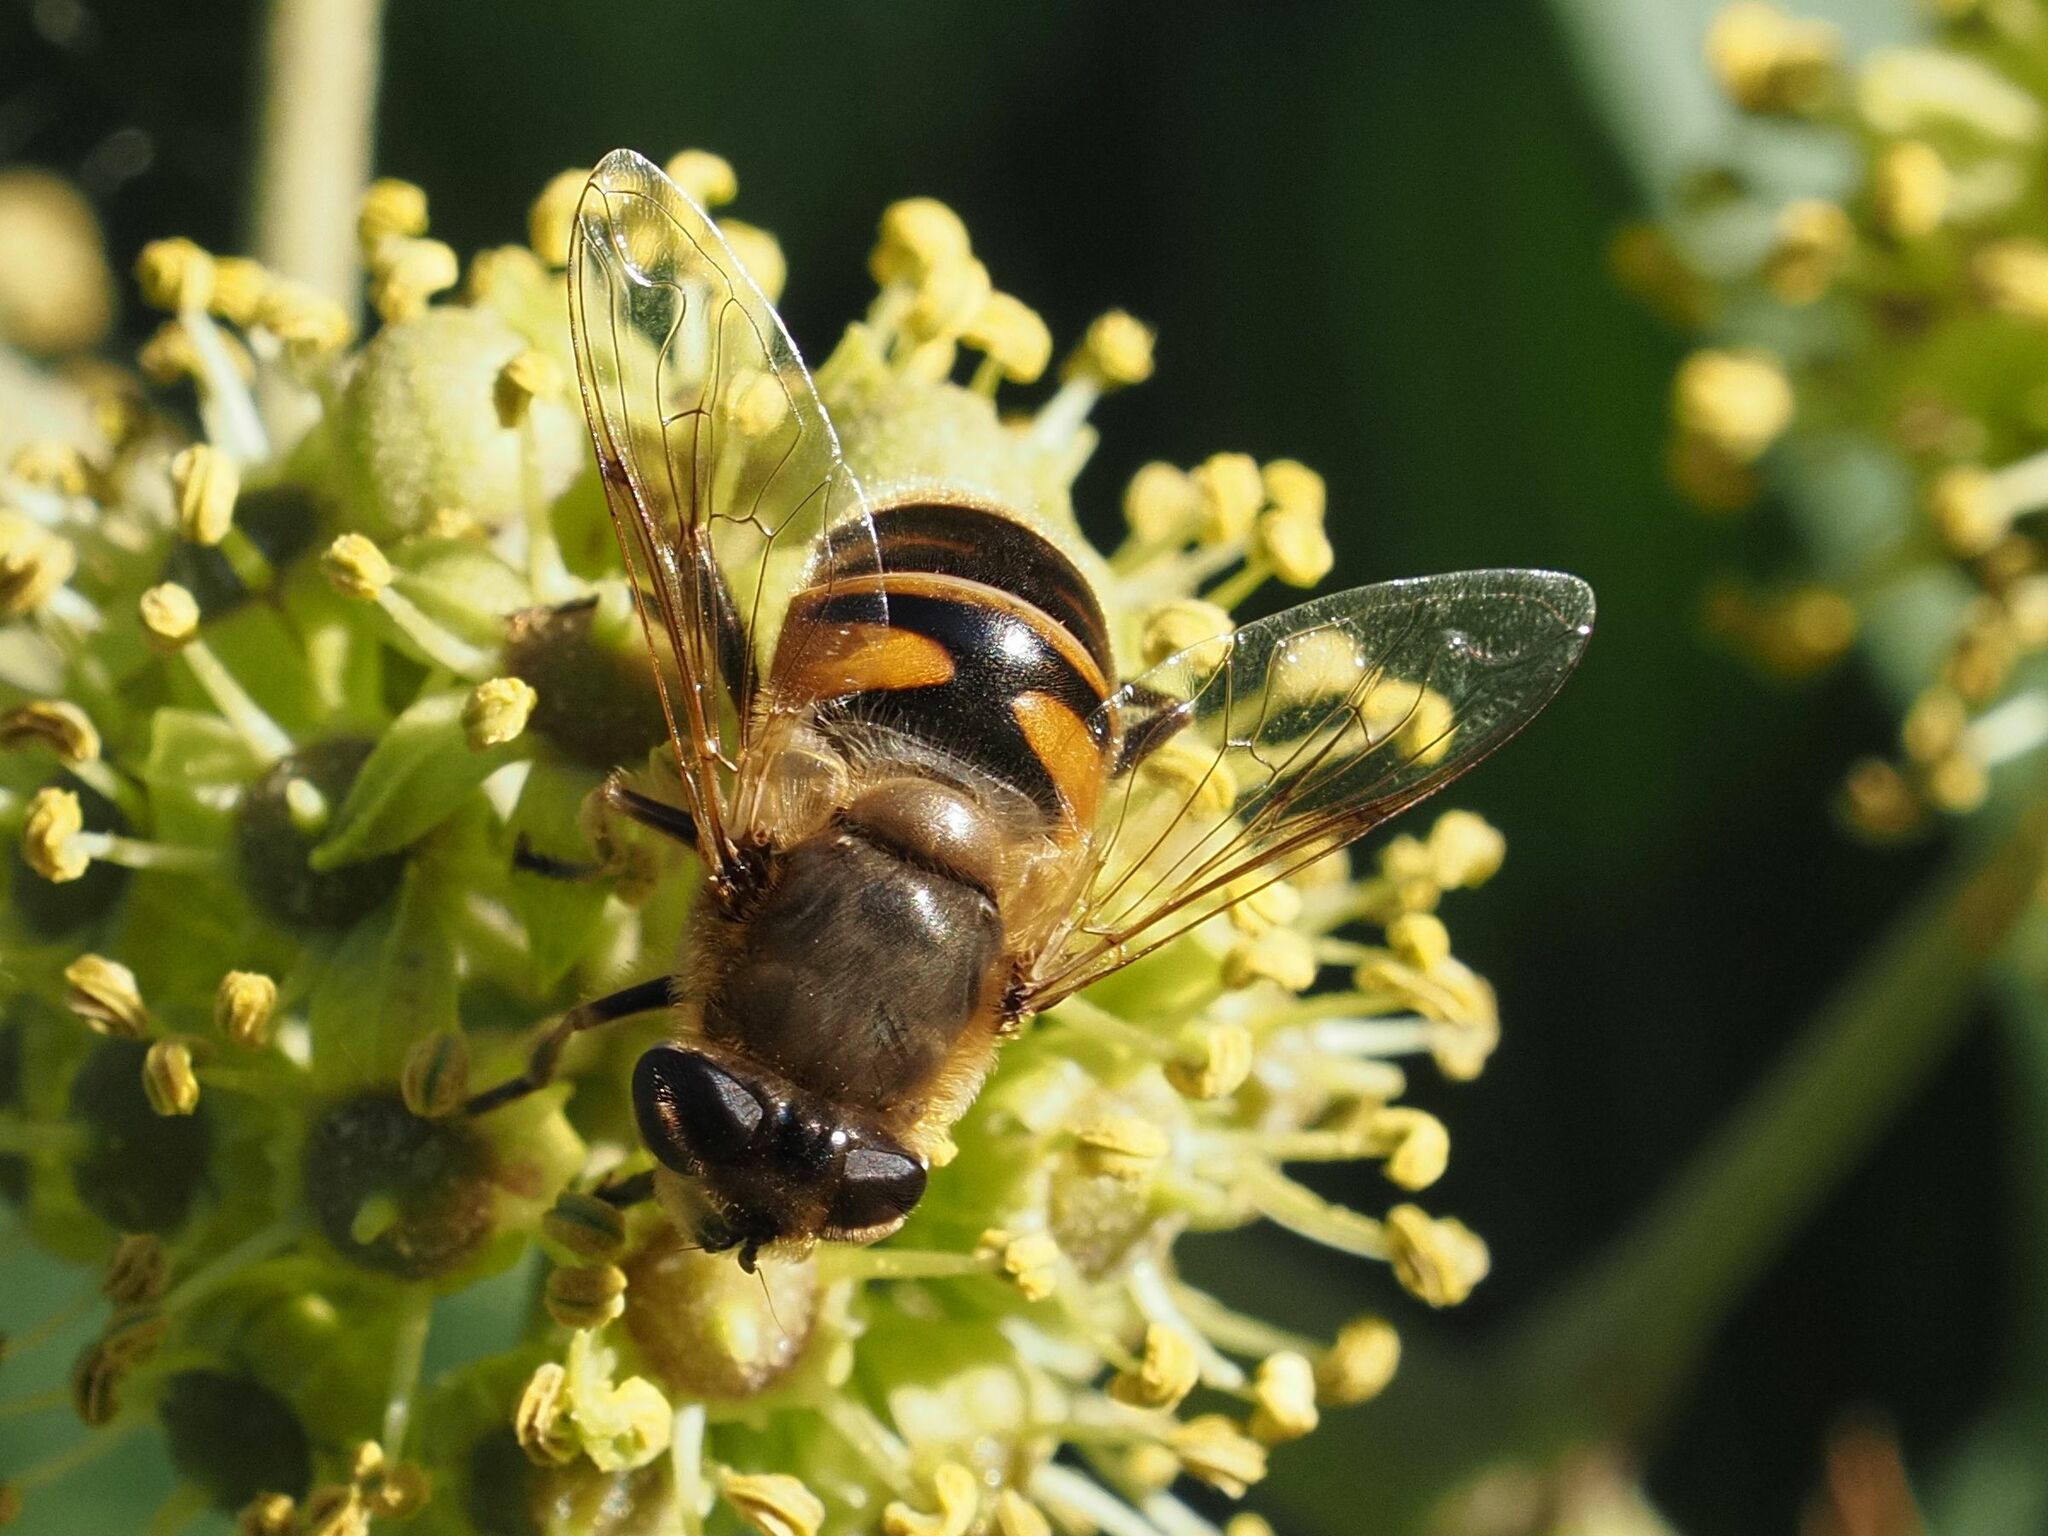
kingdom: Animalia
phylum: Arthropoda
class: Insecta
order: Diptera
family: Syrphidae
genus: Eristalis
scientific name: Eristalis tenax
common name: Drone fly
